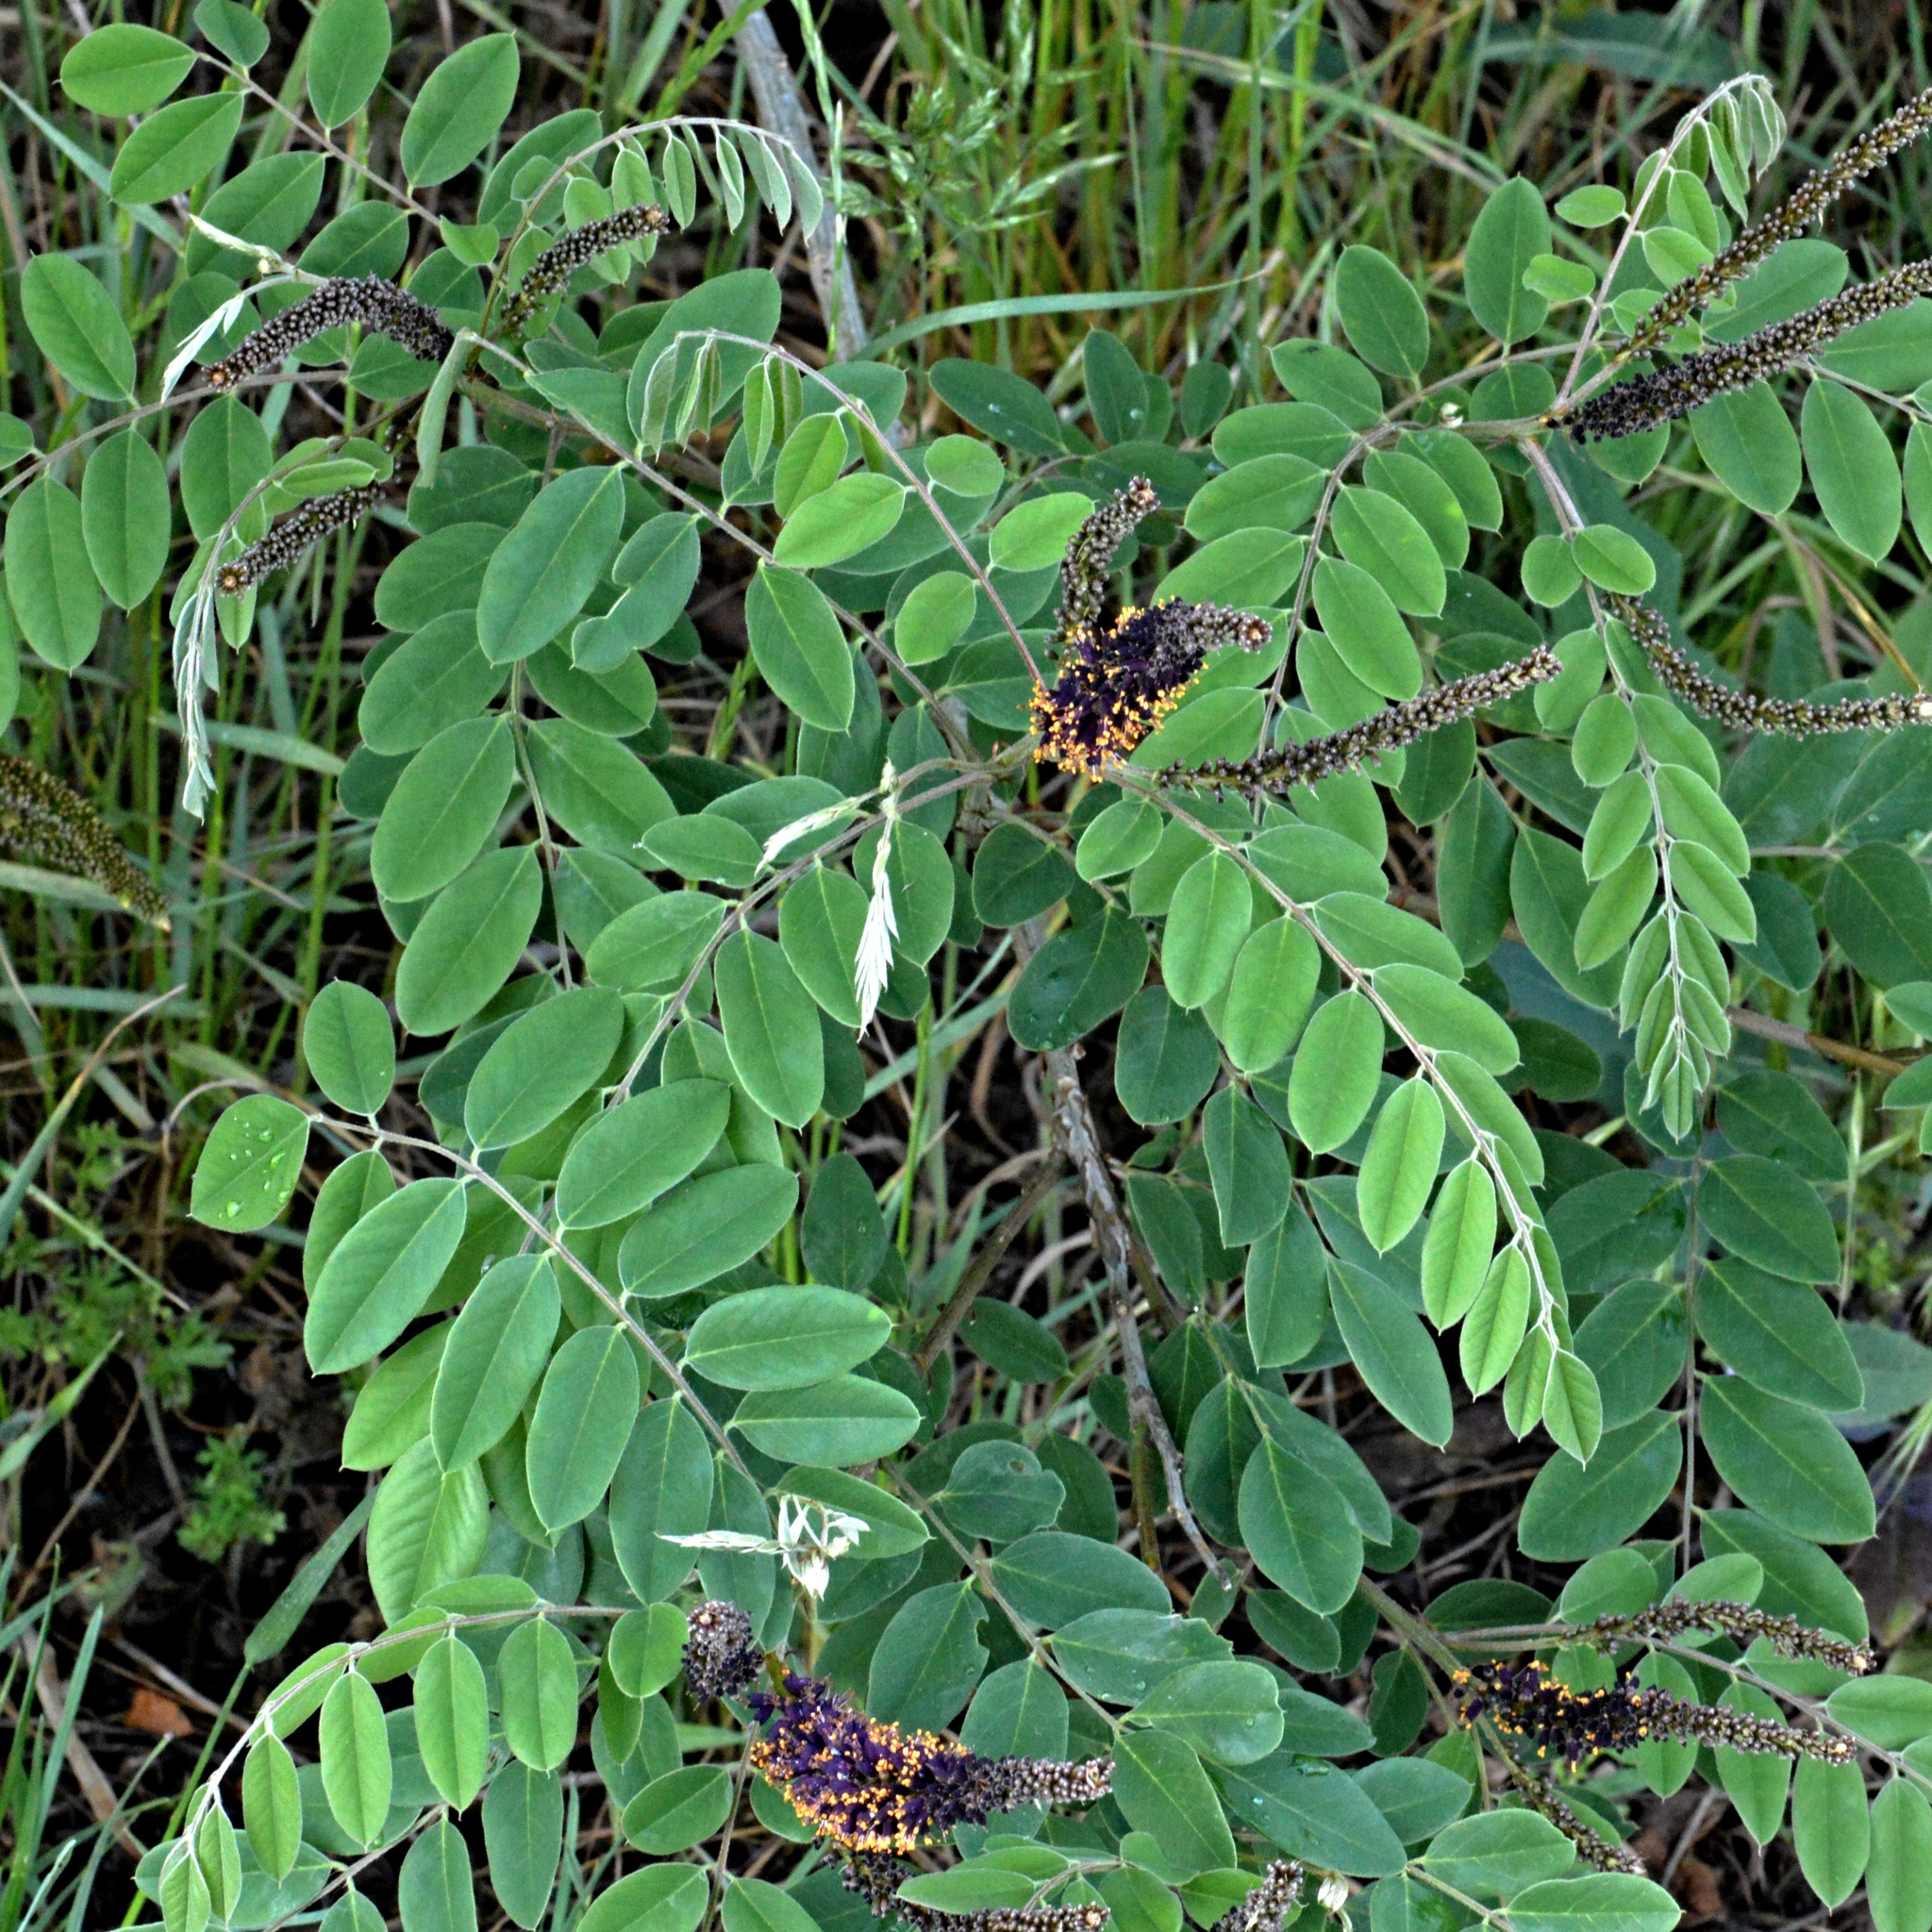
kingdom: Plantae
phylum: Tracheophyta
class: Magnoliopsida
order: Fabales
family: Fabaceae
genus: Amorpha
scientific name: Amorpha fruticosa
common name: False indigo
